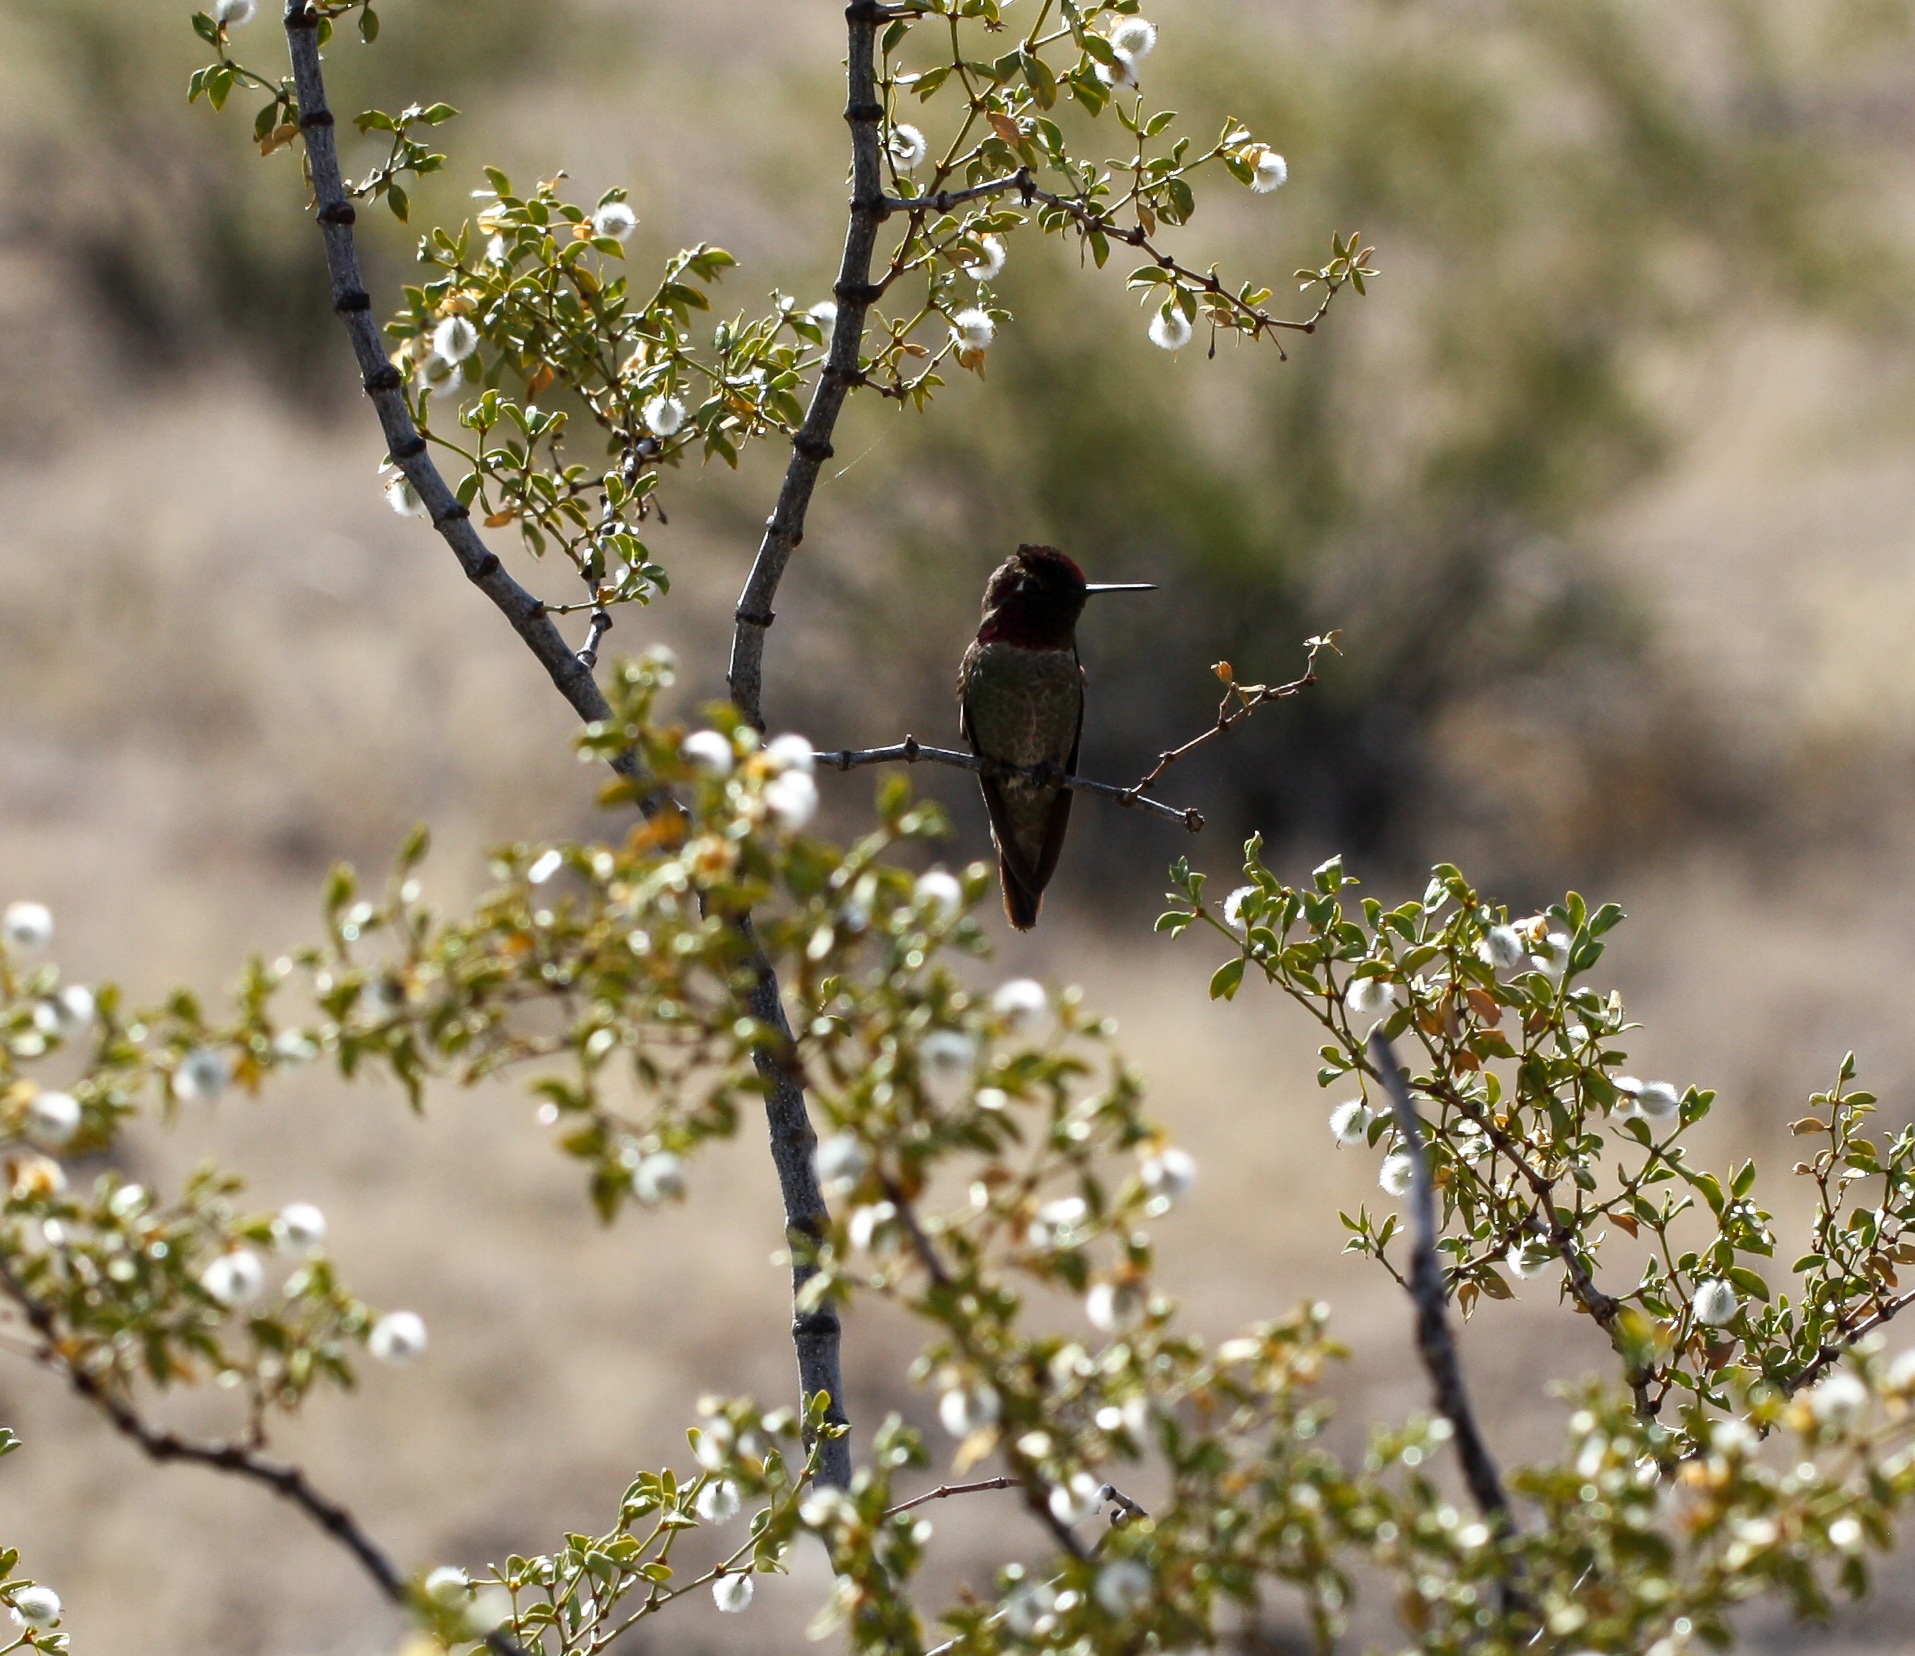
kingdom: Animalia
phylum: Chordata
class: Aves
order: Apodiformes
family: Trochilidae
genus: Calypte
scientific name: Calypte anna
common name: Anna's hummingbird
